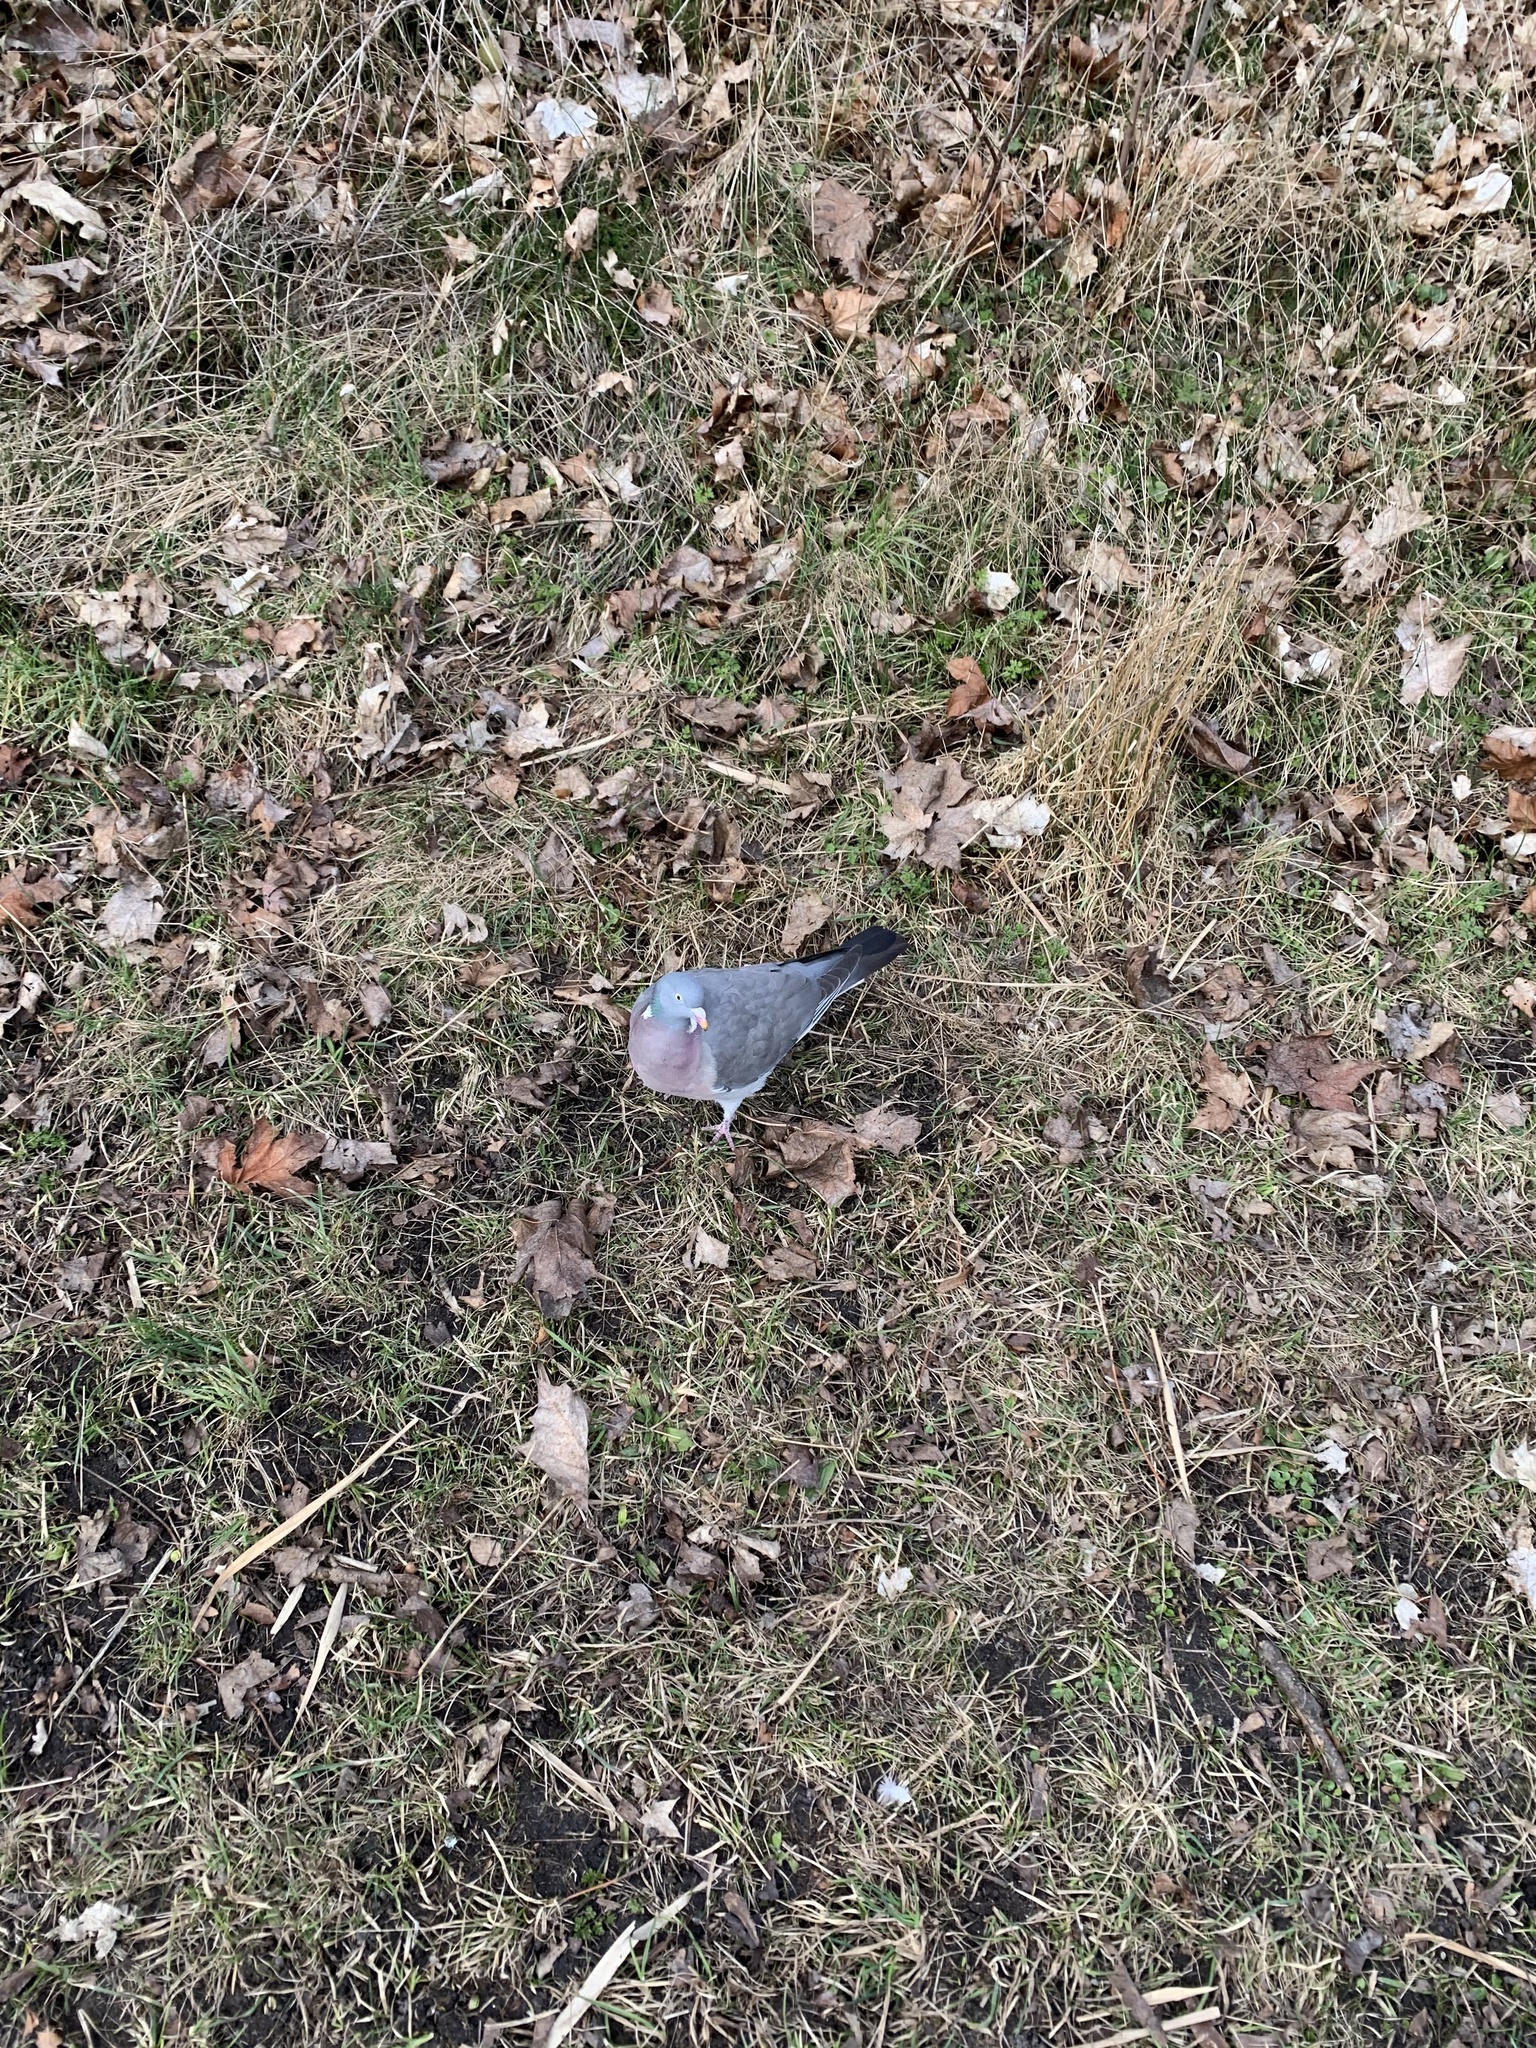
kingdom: Animalia
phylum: Chordata
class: Aves
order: Columbiformes
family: Columbidae
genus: Columba
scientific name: Columba palumbus
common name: Common wood pigeon
